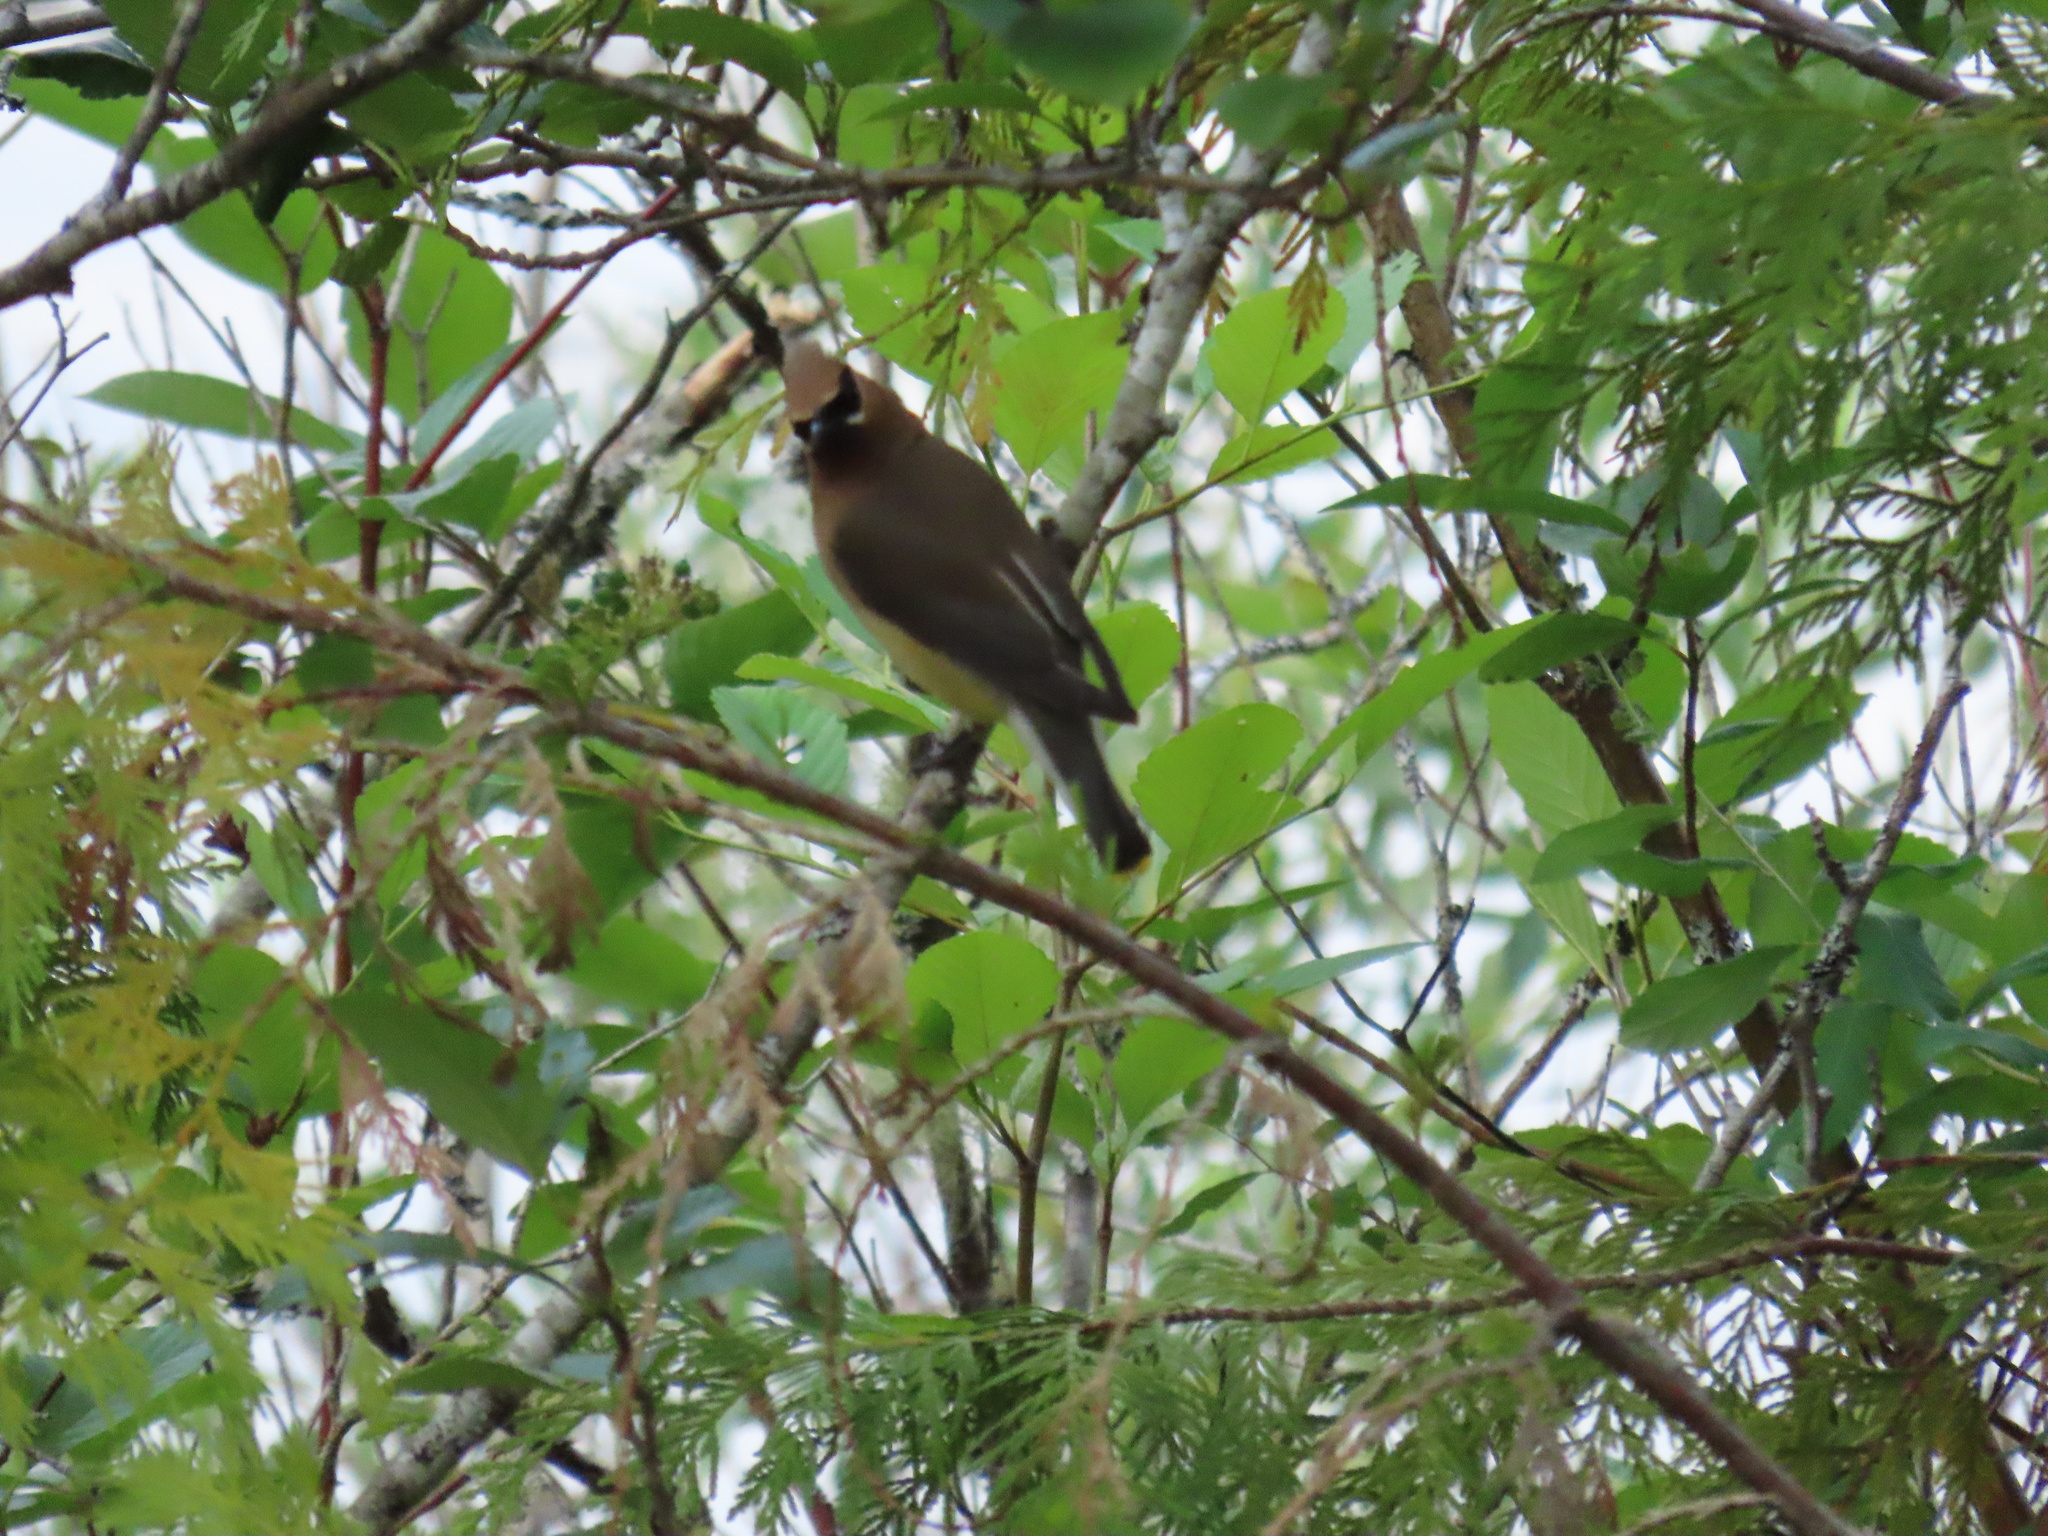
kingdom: Animalia
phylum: Chordata
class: Aves
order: Passeriformes
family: Bombycillidae
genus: Bombycilla
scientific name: Bombycilla cedrorum
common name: Cedar waxwing
